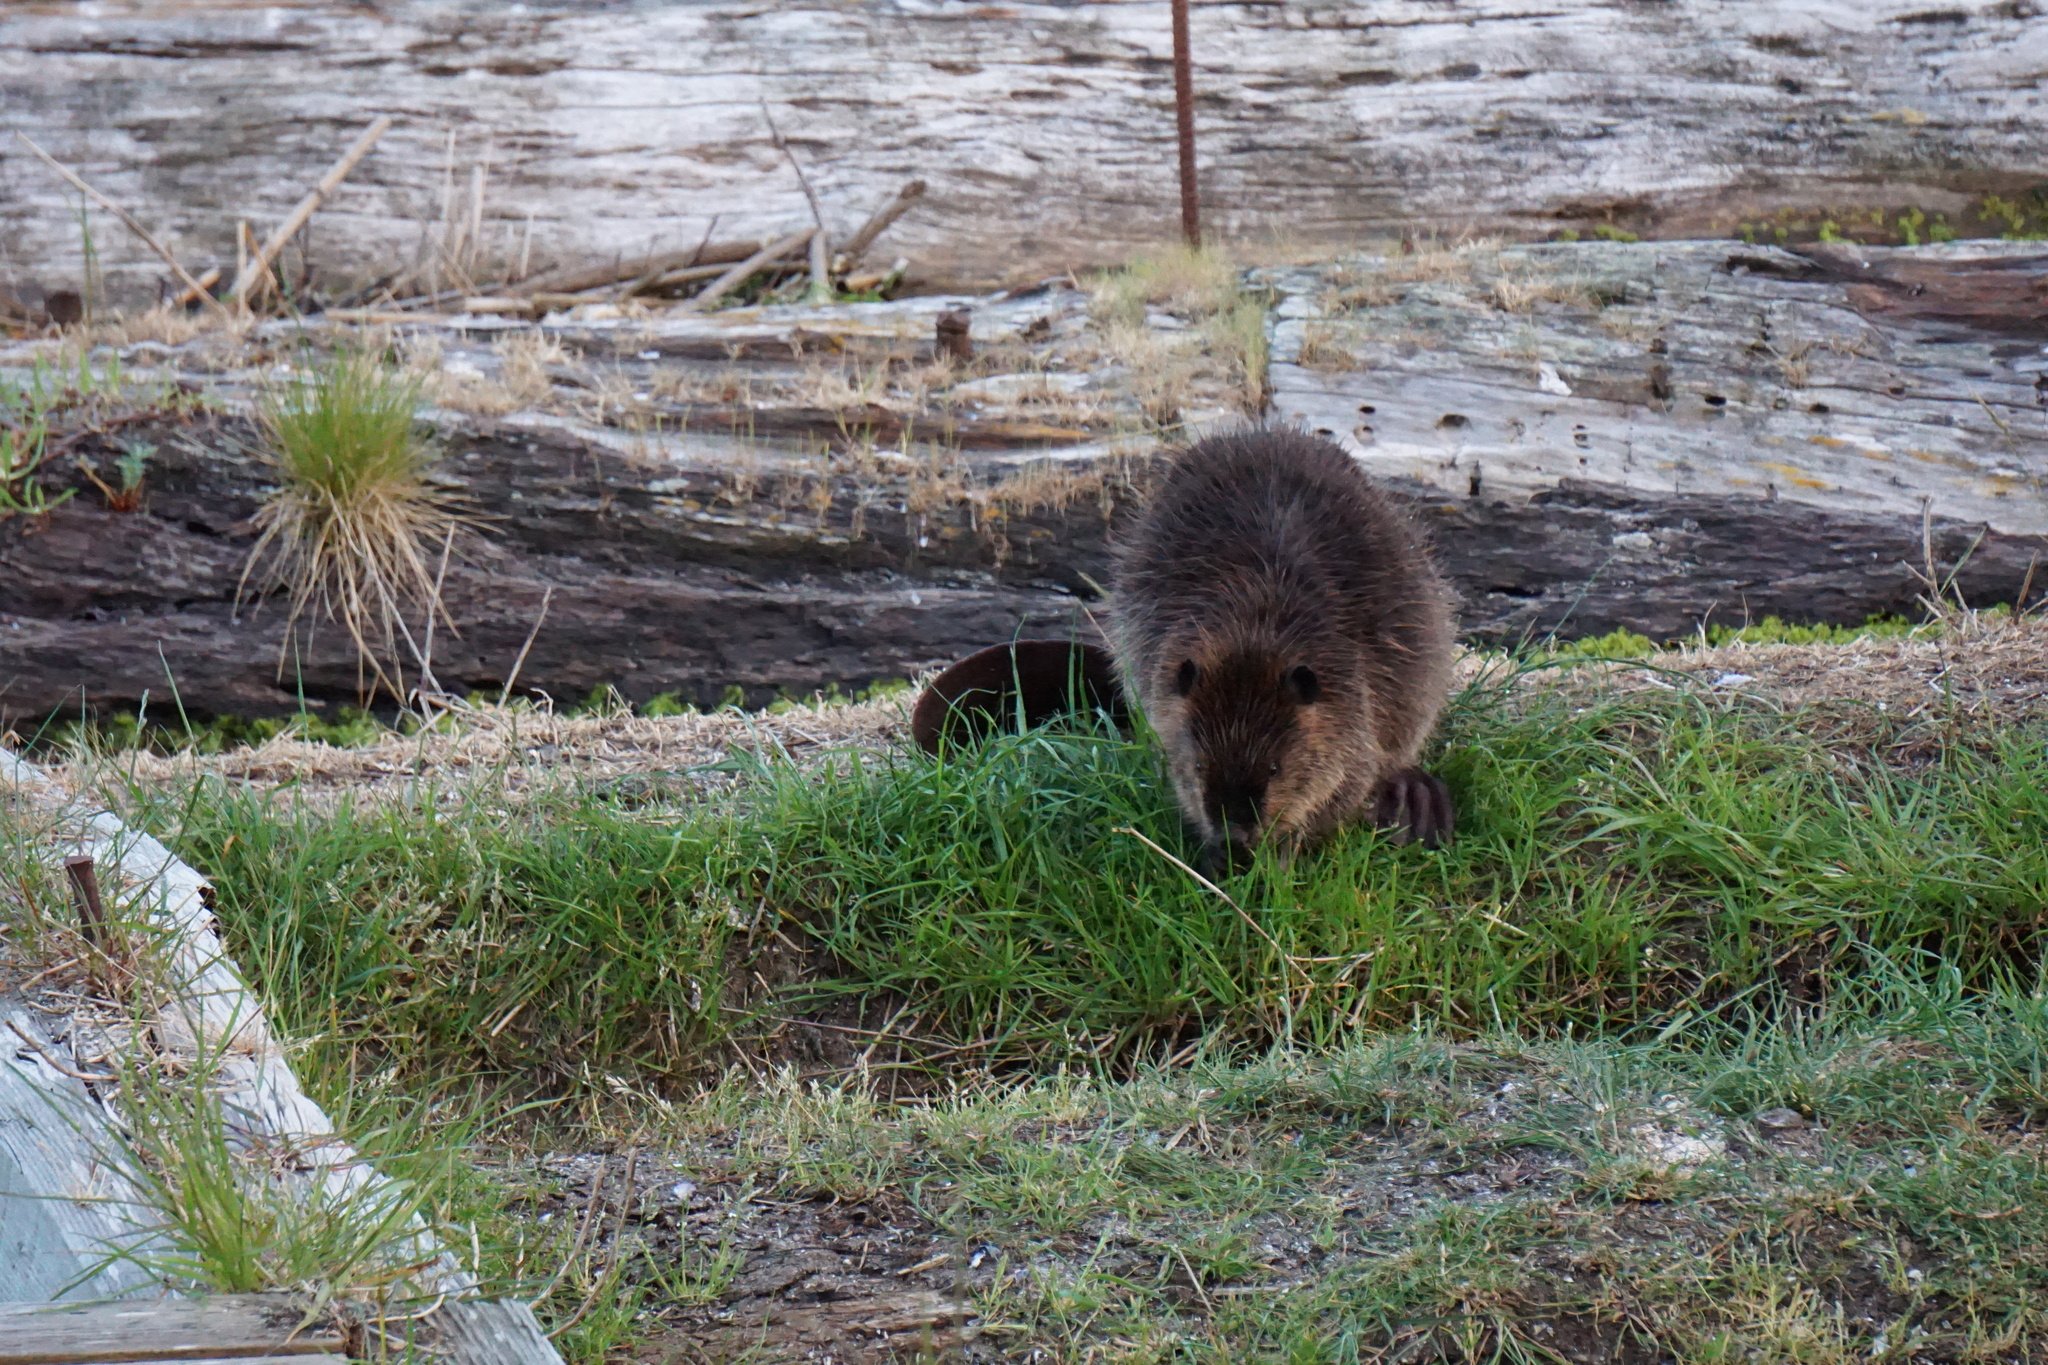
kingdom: Animalia
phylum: Chordata
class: Mammalia
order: Rodentia
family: Castoridae
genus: Castor
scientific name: Castor canadensis
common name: American beaver
